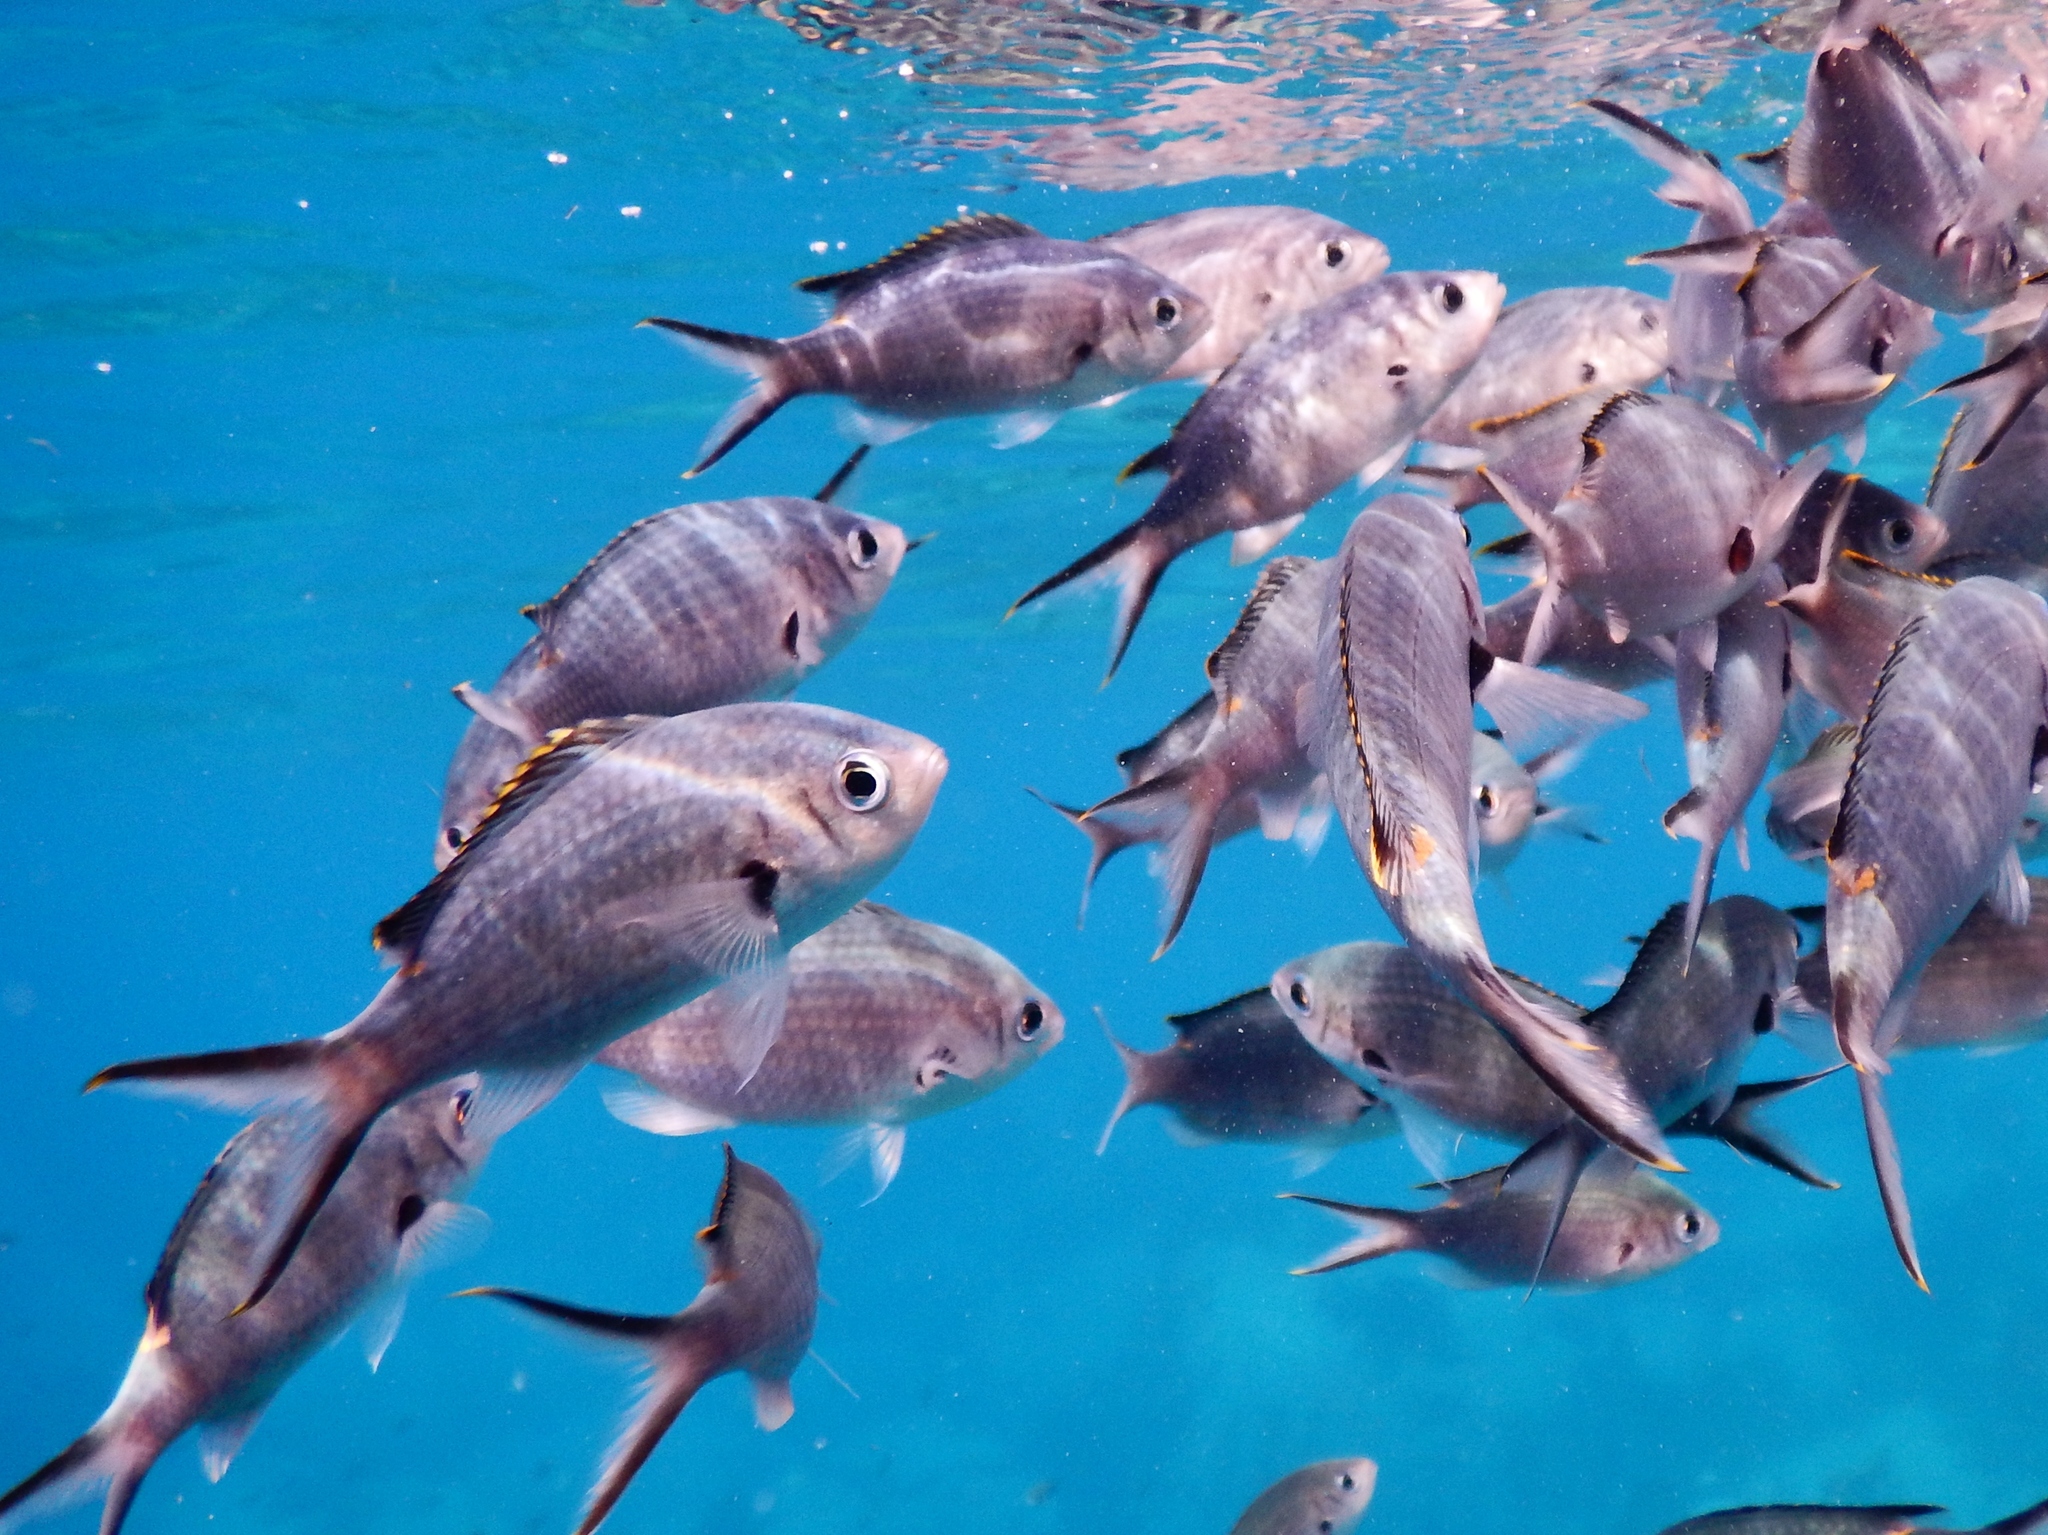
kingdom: Animalia
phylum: Chordata
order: Perciformes
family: Pomacentridae
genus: Chromis
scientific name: Chromis multilineata
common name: Brown chromis
